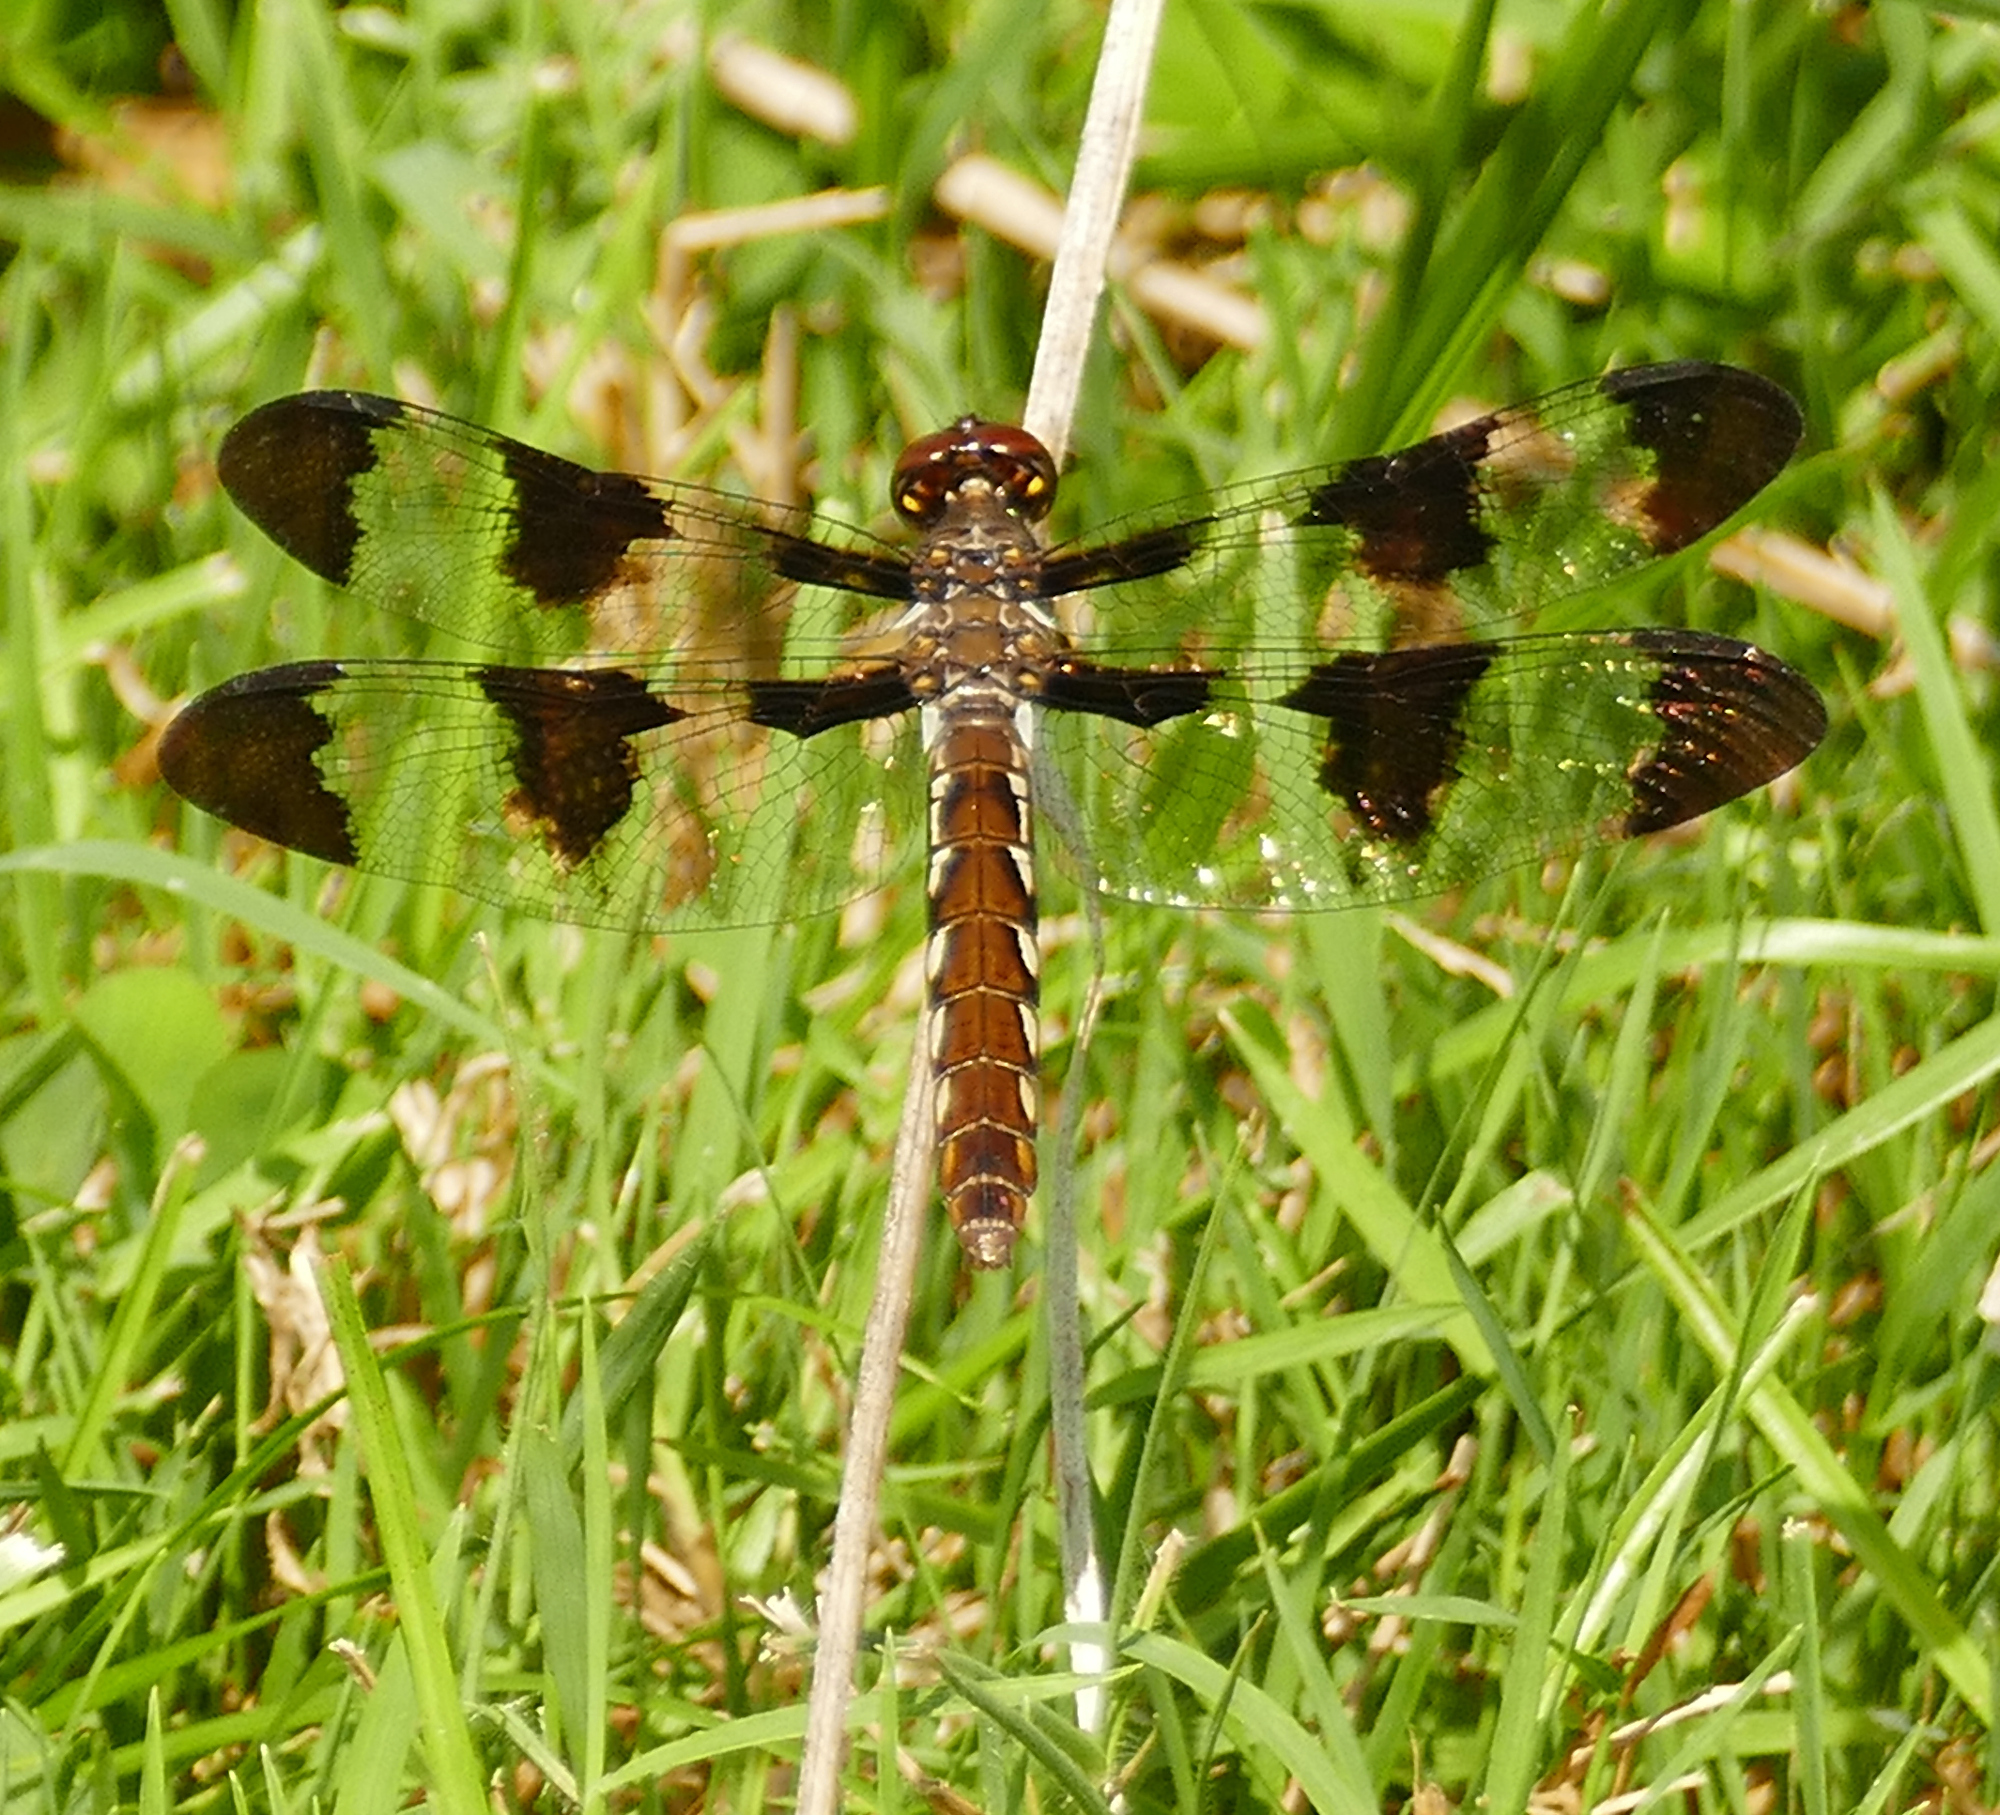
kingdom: Animalia
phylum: Arthropoda
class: Insecta
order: Odonata
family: Libellulidae
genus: Plathemis
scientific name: Plathemis lydia
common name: Common whitetail
